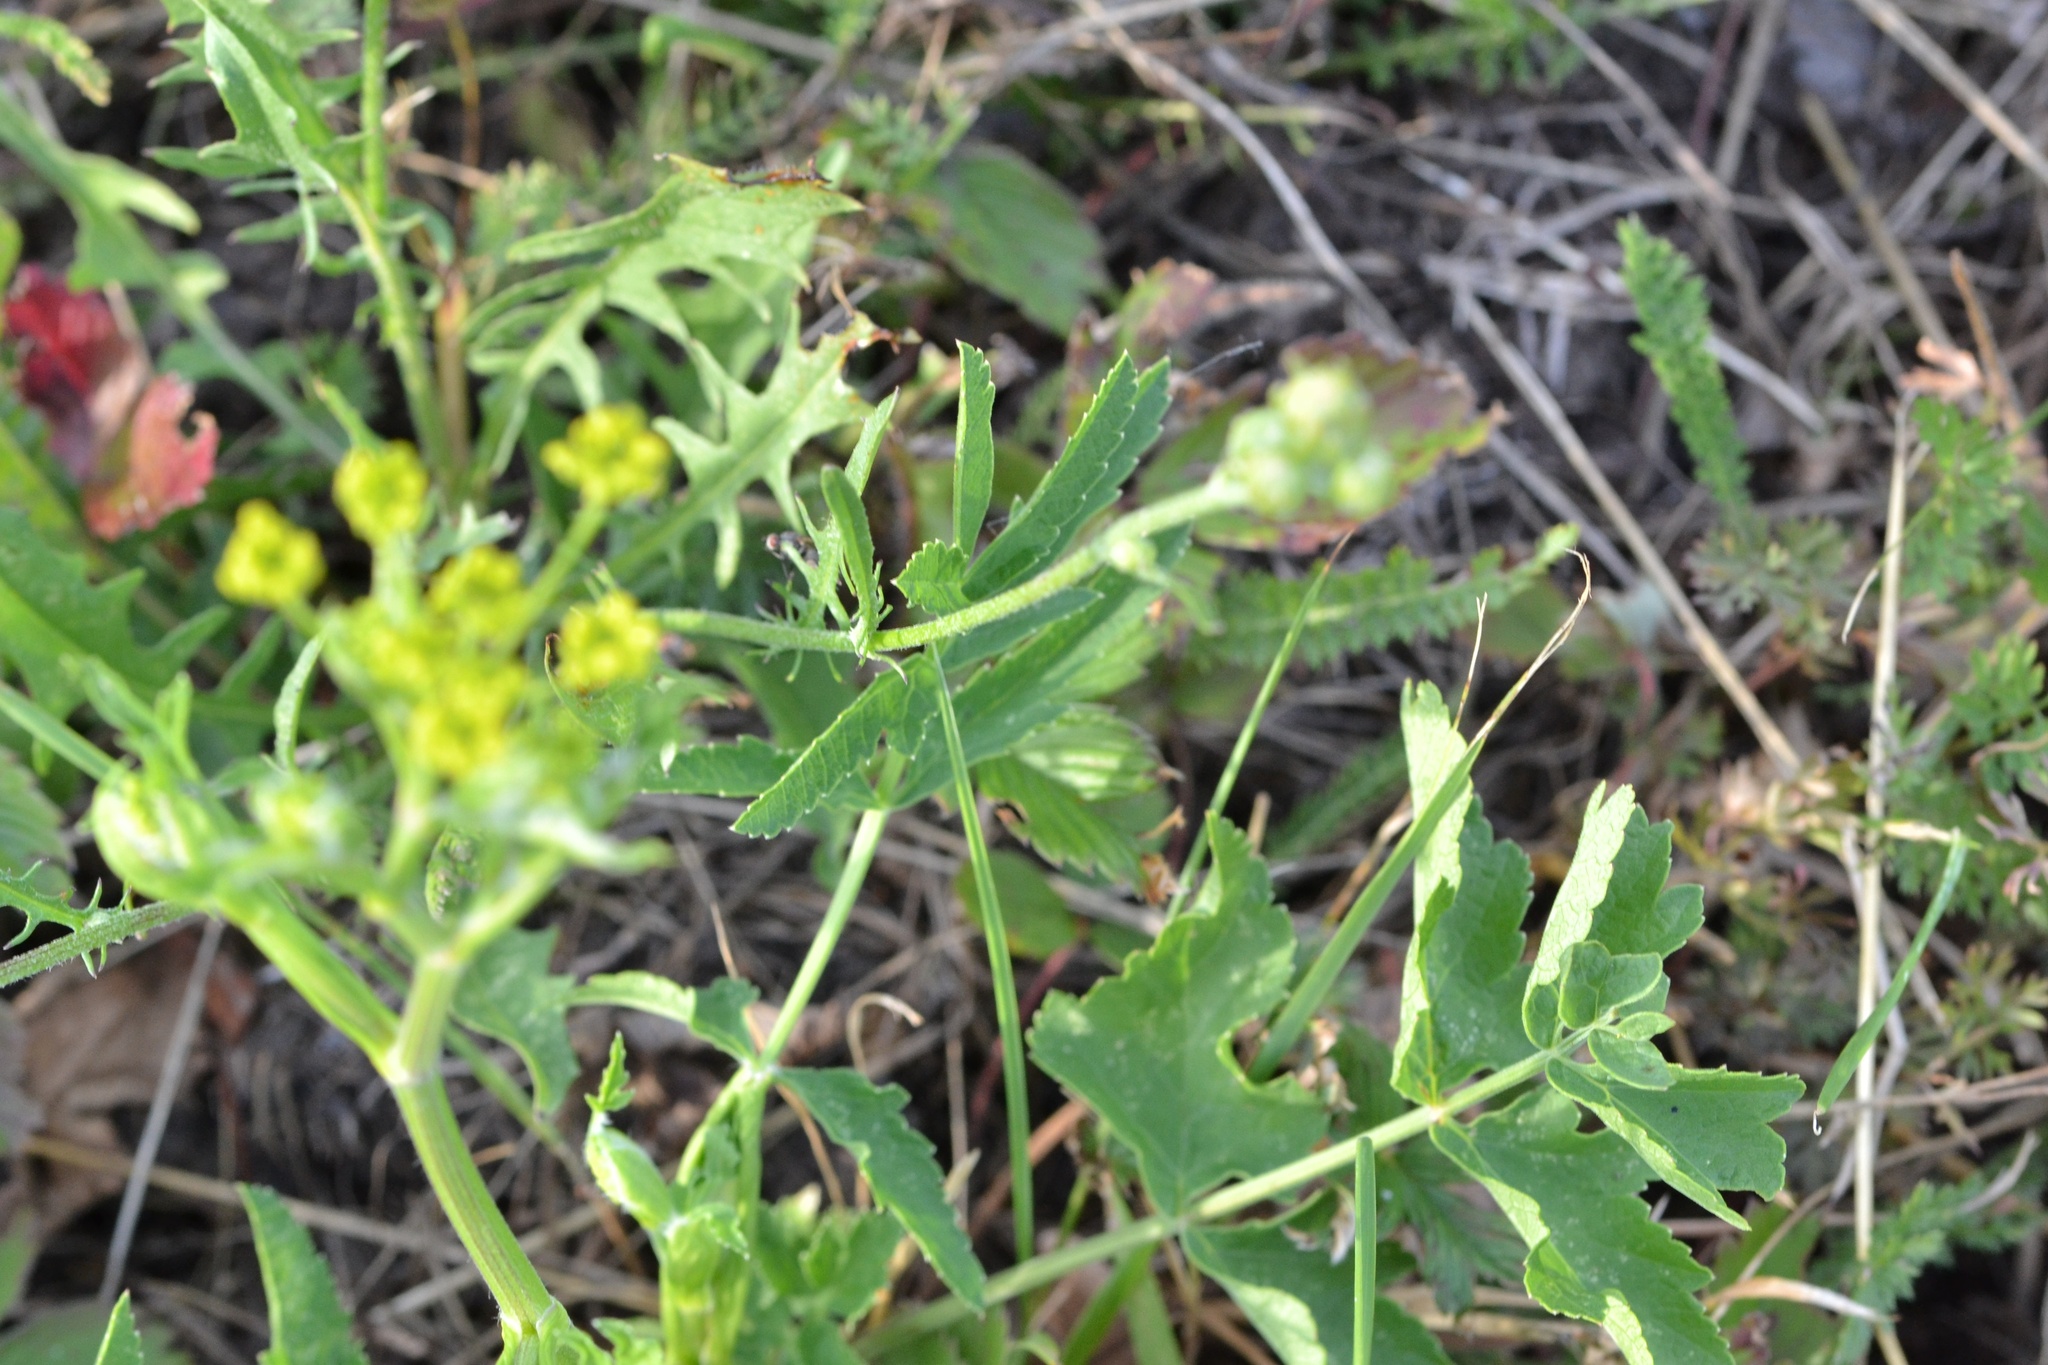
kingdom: Plantae
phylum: Tracheophyta
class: Magnoliopsida
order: Apiales
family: Apiaceae
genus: Pastinaca
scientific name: Pastinaca sativa
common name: Wild parsnip
